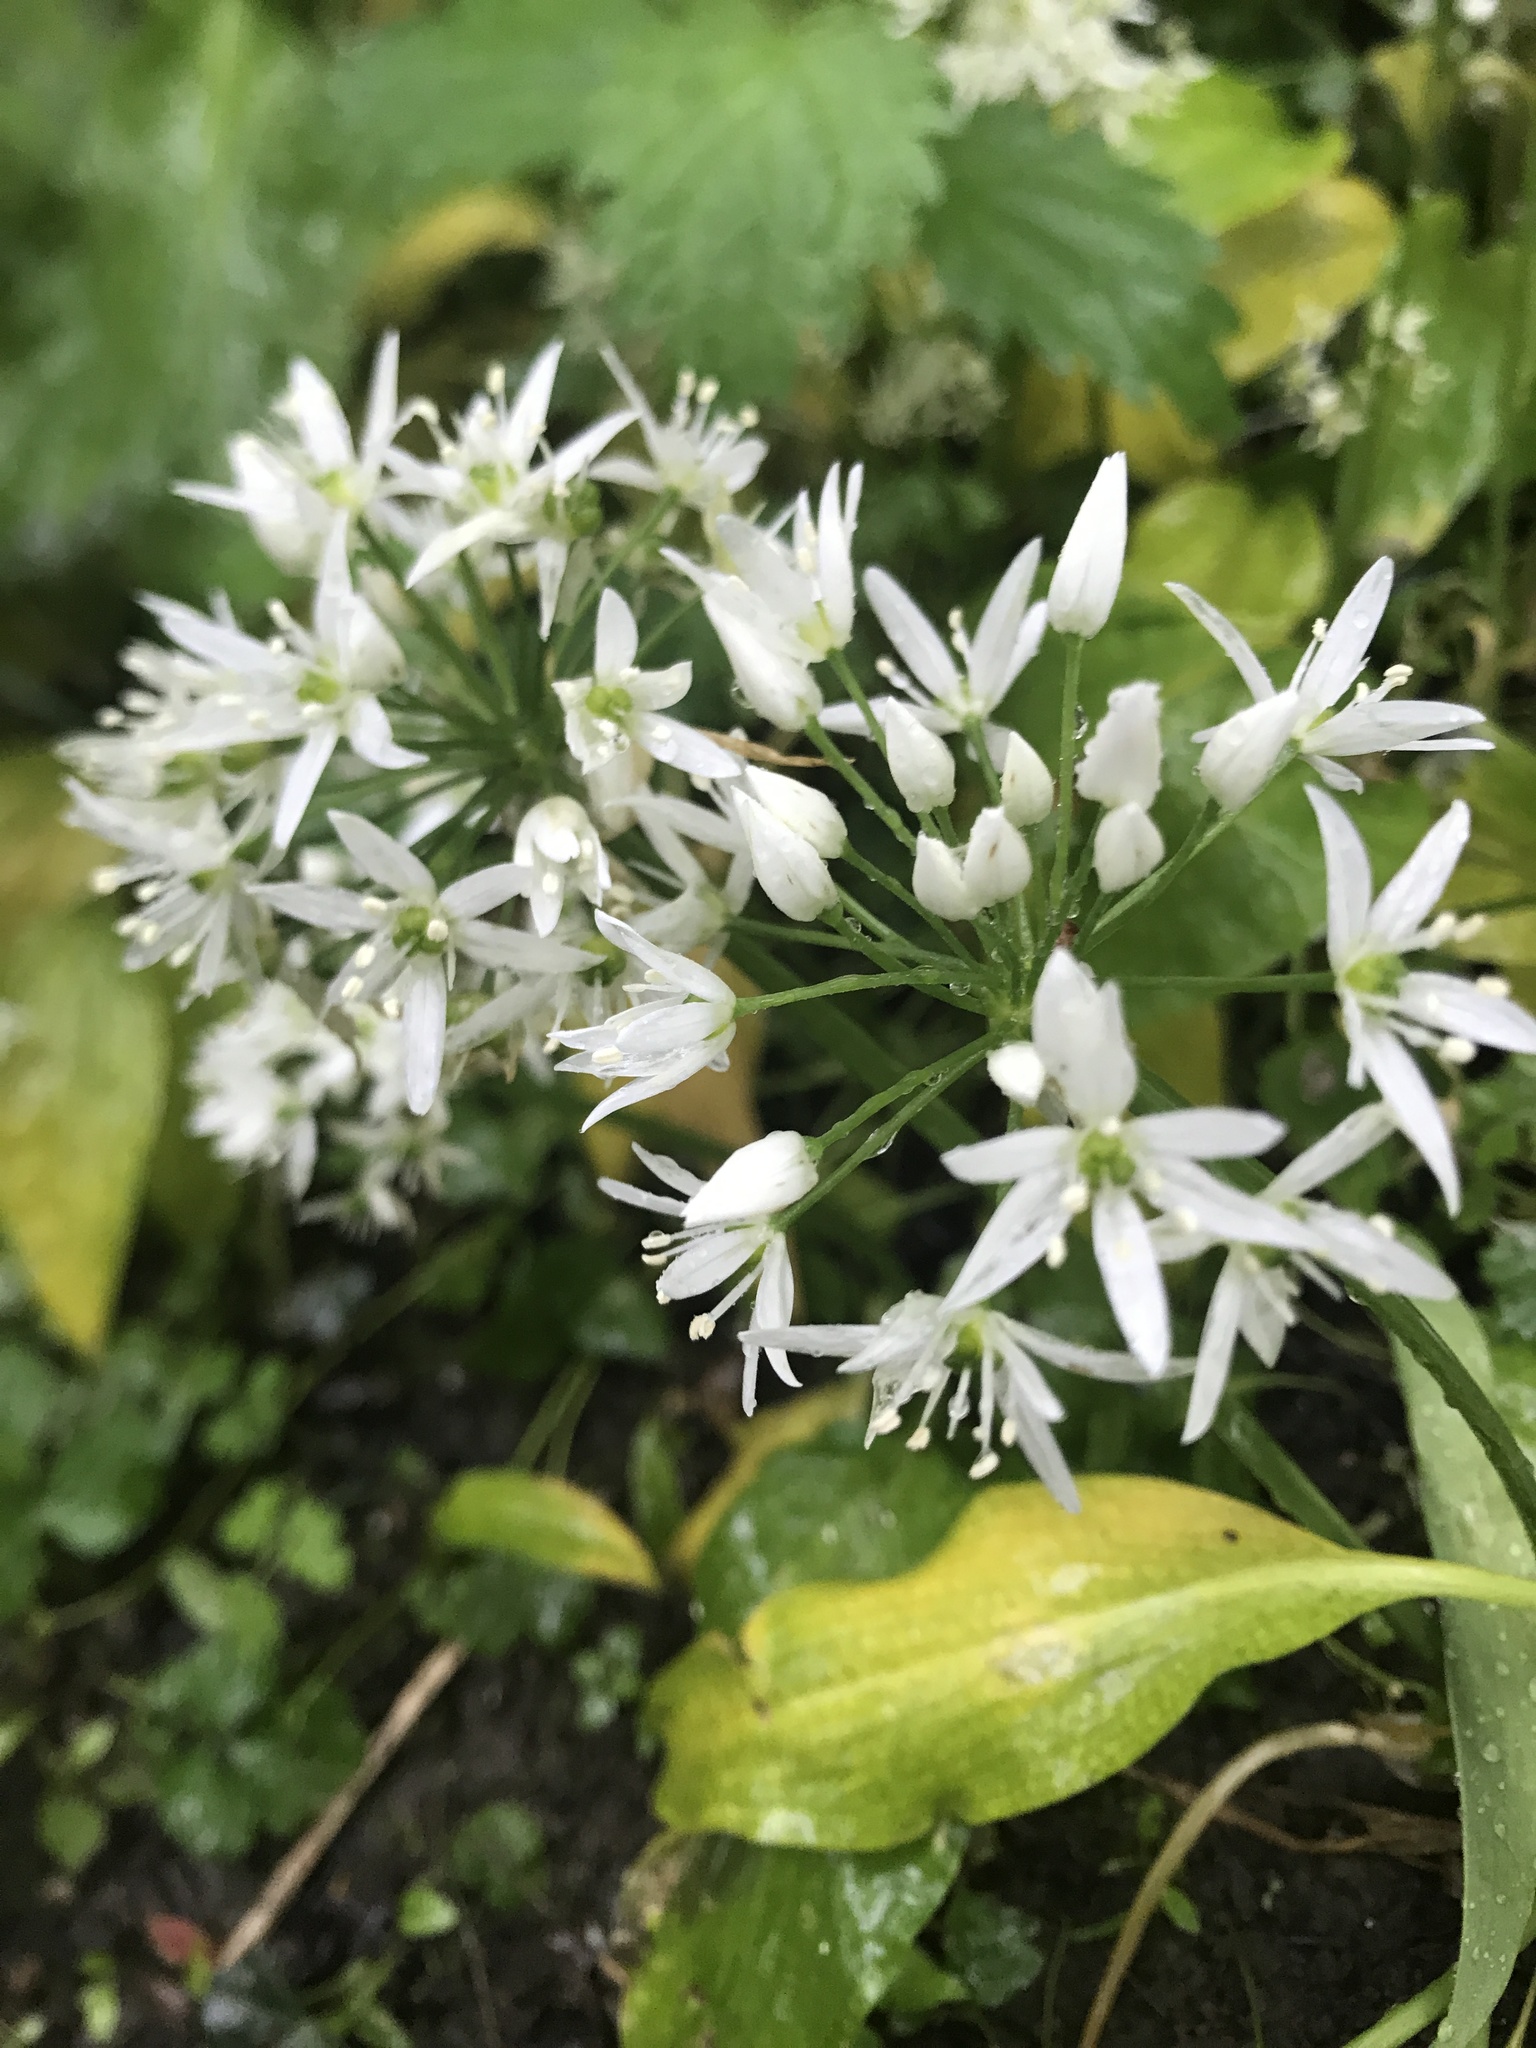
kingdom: Plantae
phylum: Tracheophyta
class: Liliopsida
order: Asparagales
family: Amaryllidaceae
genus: Allium
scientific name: Allium ursinum
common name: Ramsons
